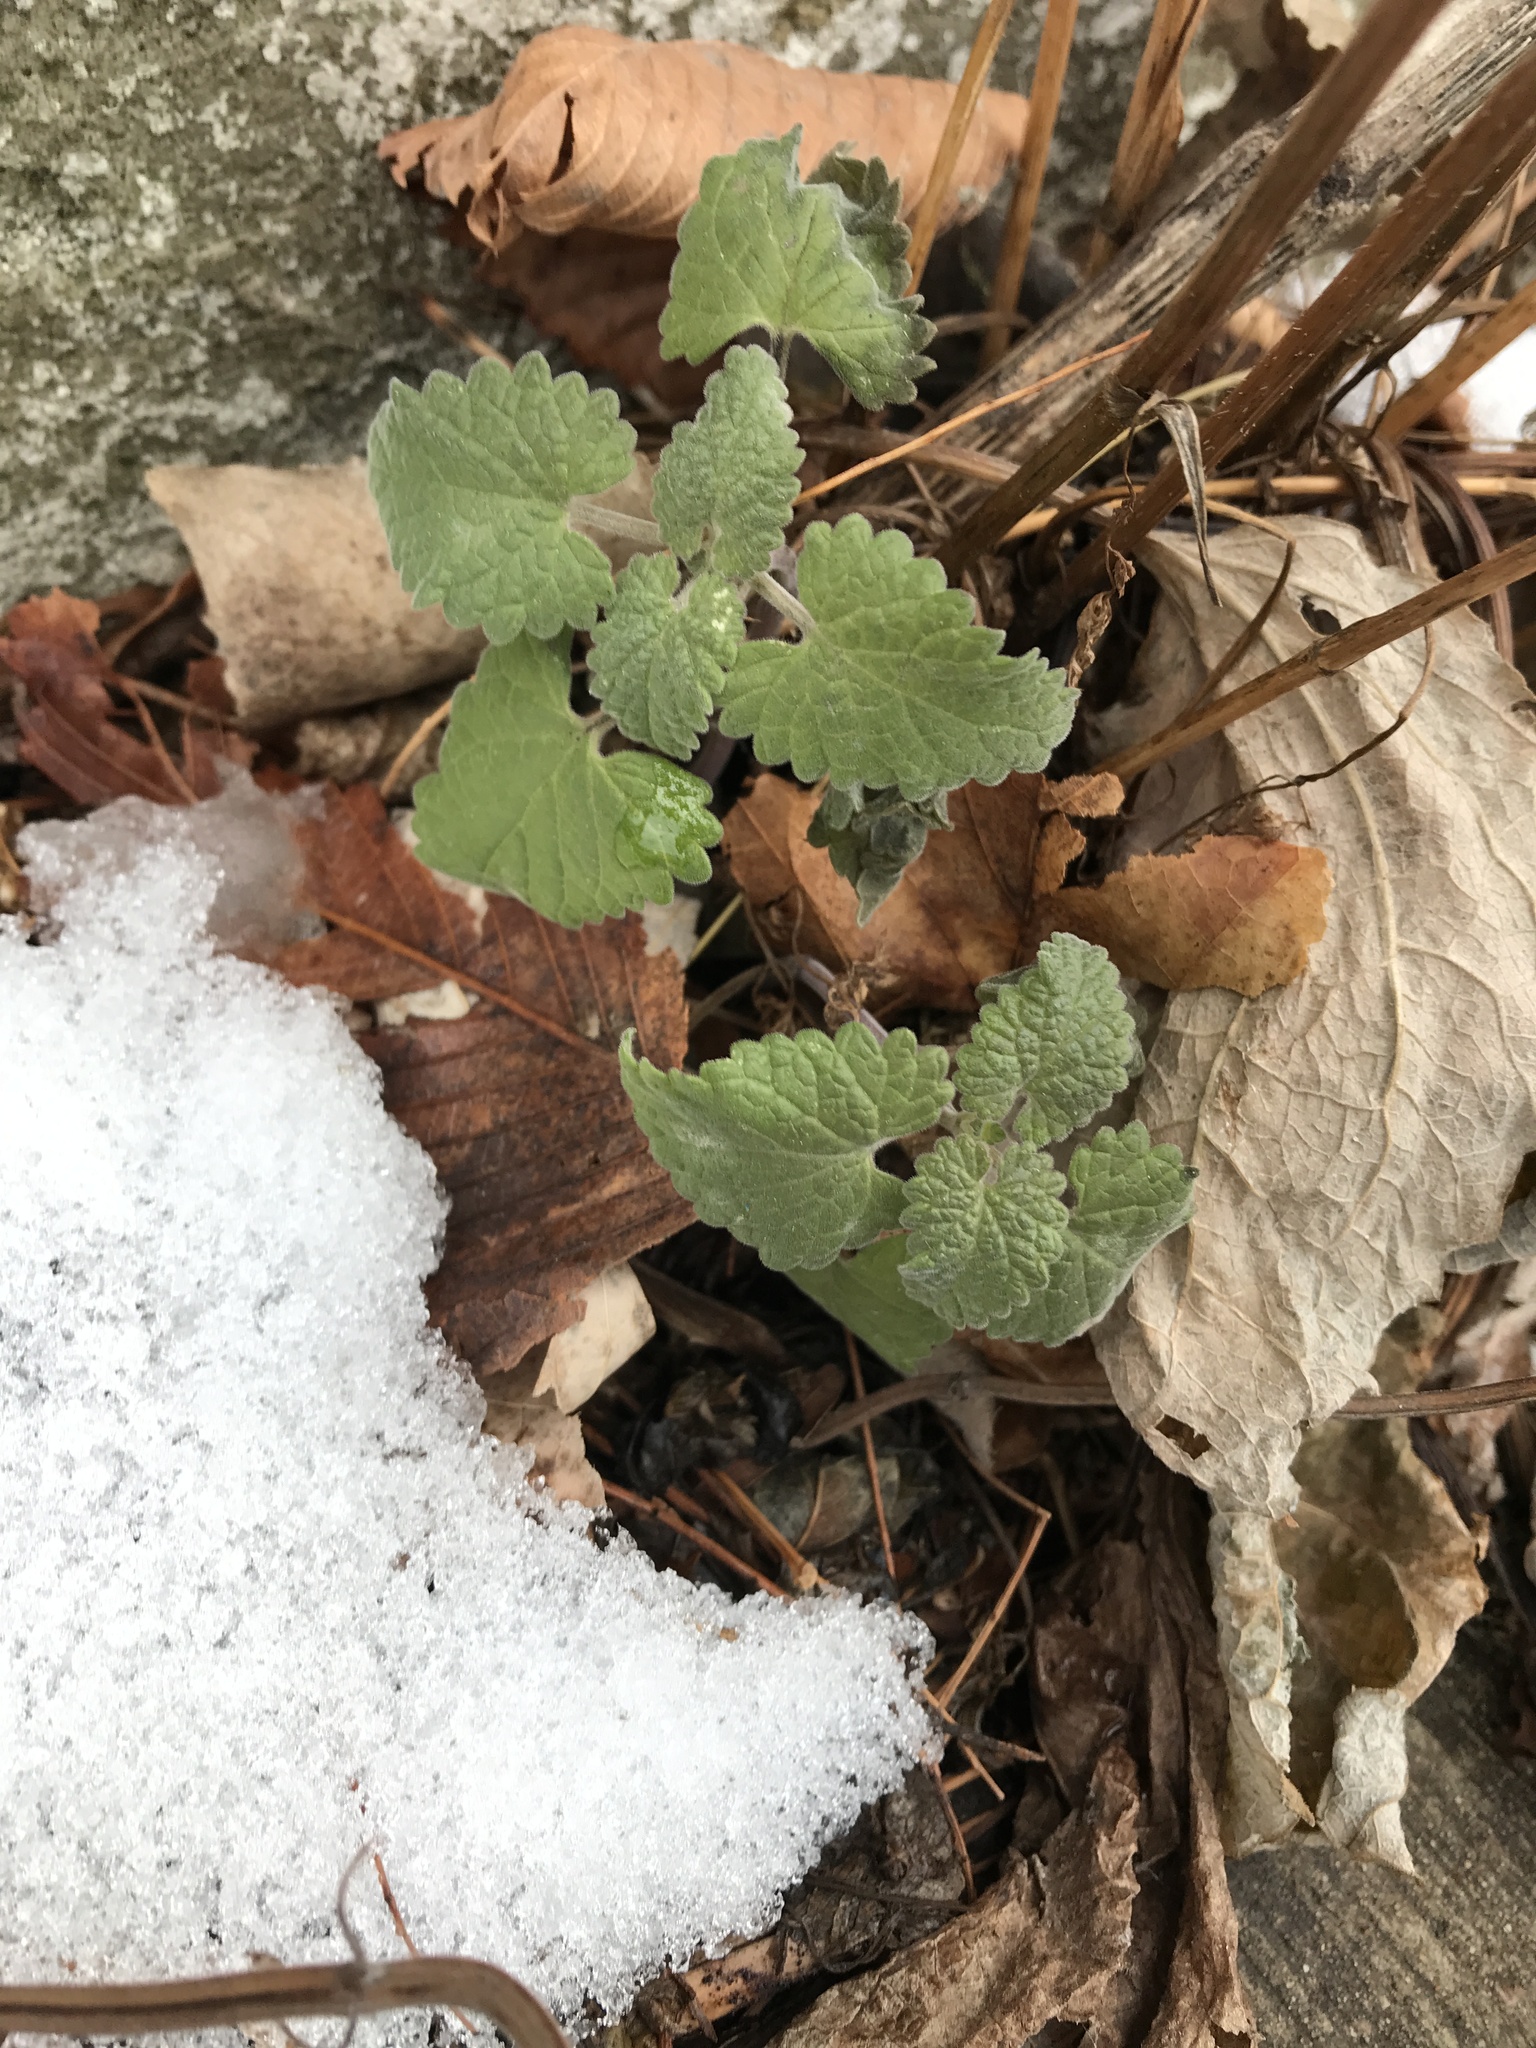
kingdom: Plantae
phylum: Tracheophyta
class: Magnoliopsida
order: Lamiales
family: Lamiaceae
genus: Nepeta
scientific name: Nepeta cataria
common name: Catnip
